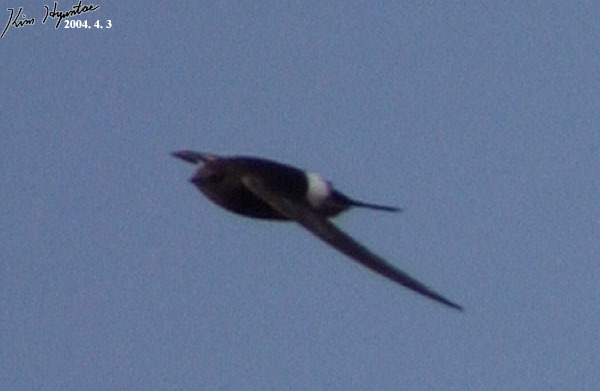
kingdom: Animalia
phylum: Chordata
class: Aves
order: Apodiformes
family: Apodidae
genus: Apus
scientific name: Apus pacificus
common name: Pacific swift
